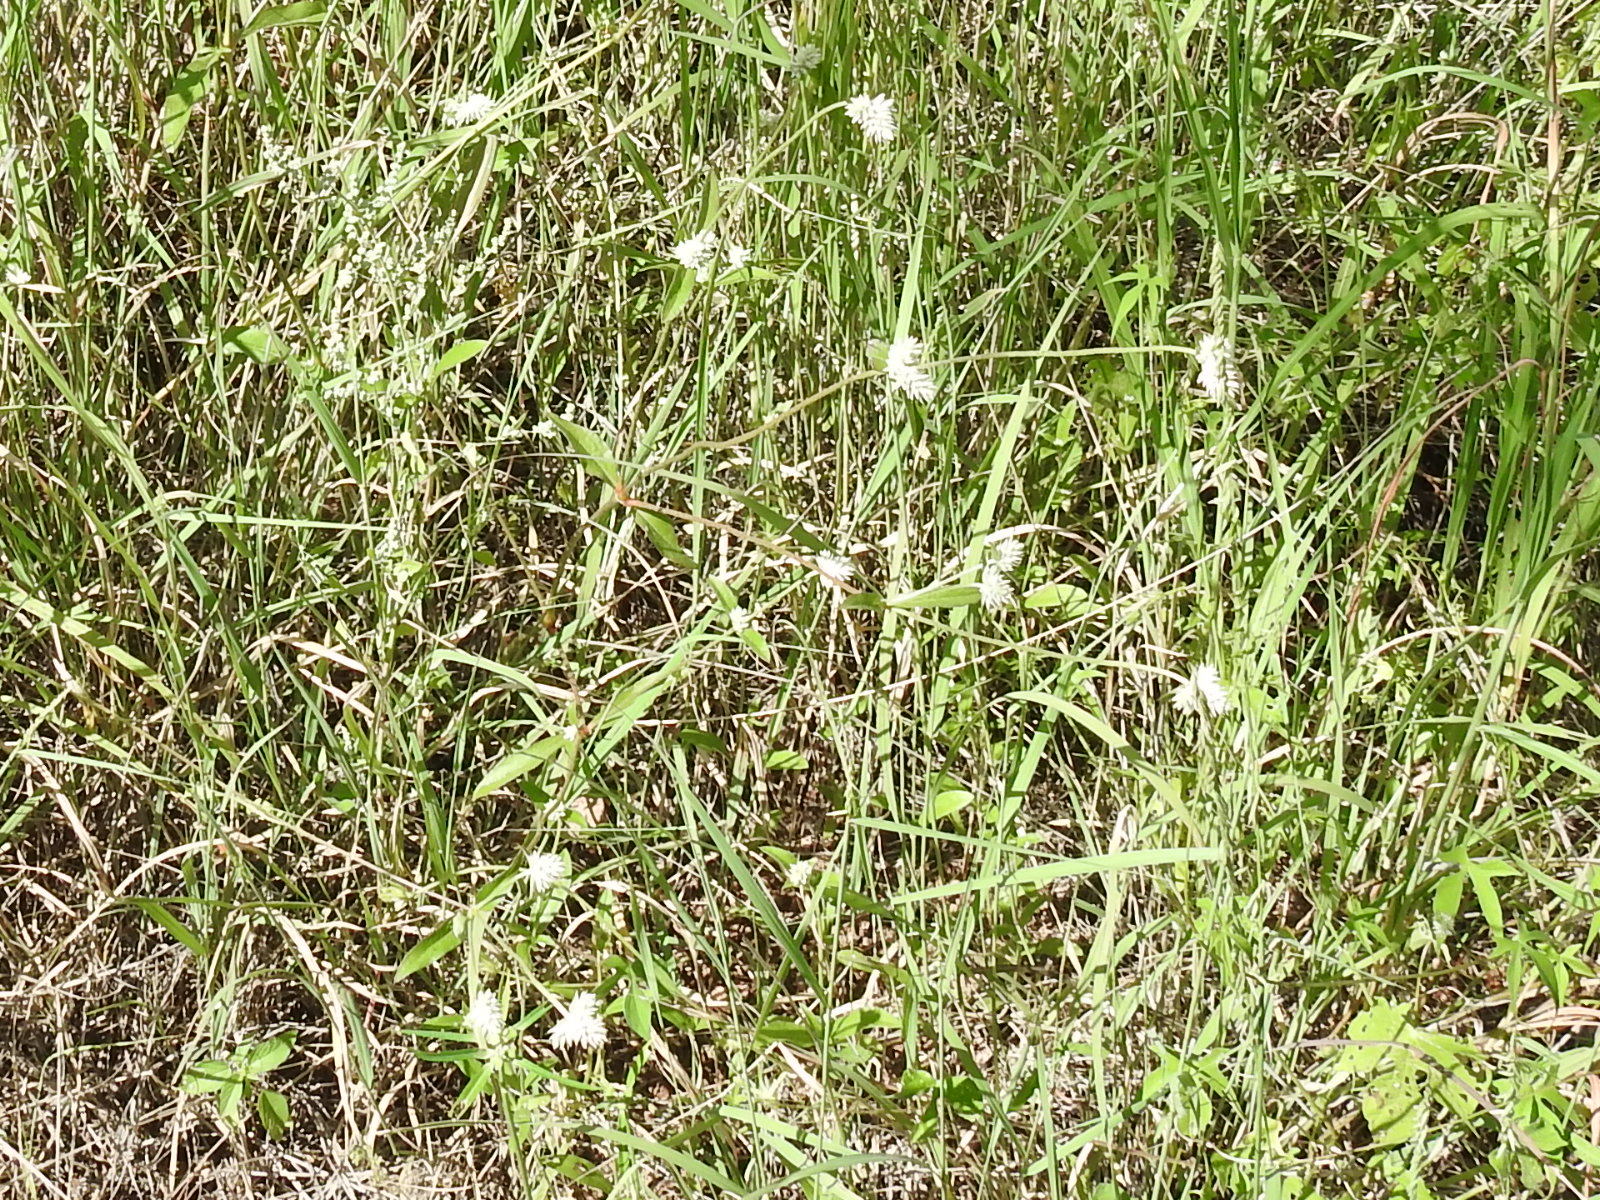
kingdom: Plantae
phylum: Tracheophyta
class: Magnoliopsida
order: Caryophyllales
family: Amaranthaceae
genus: Gomphrena
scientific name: Gomphrena sonorae
